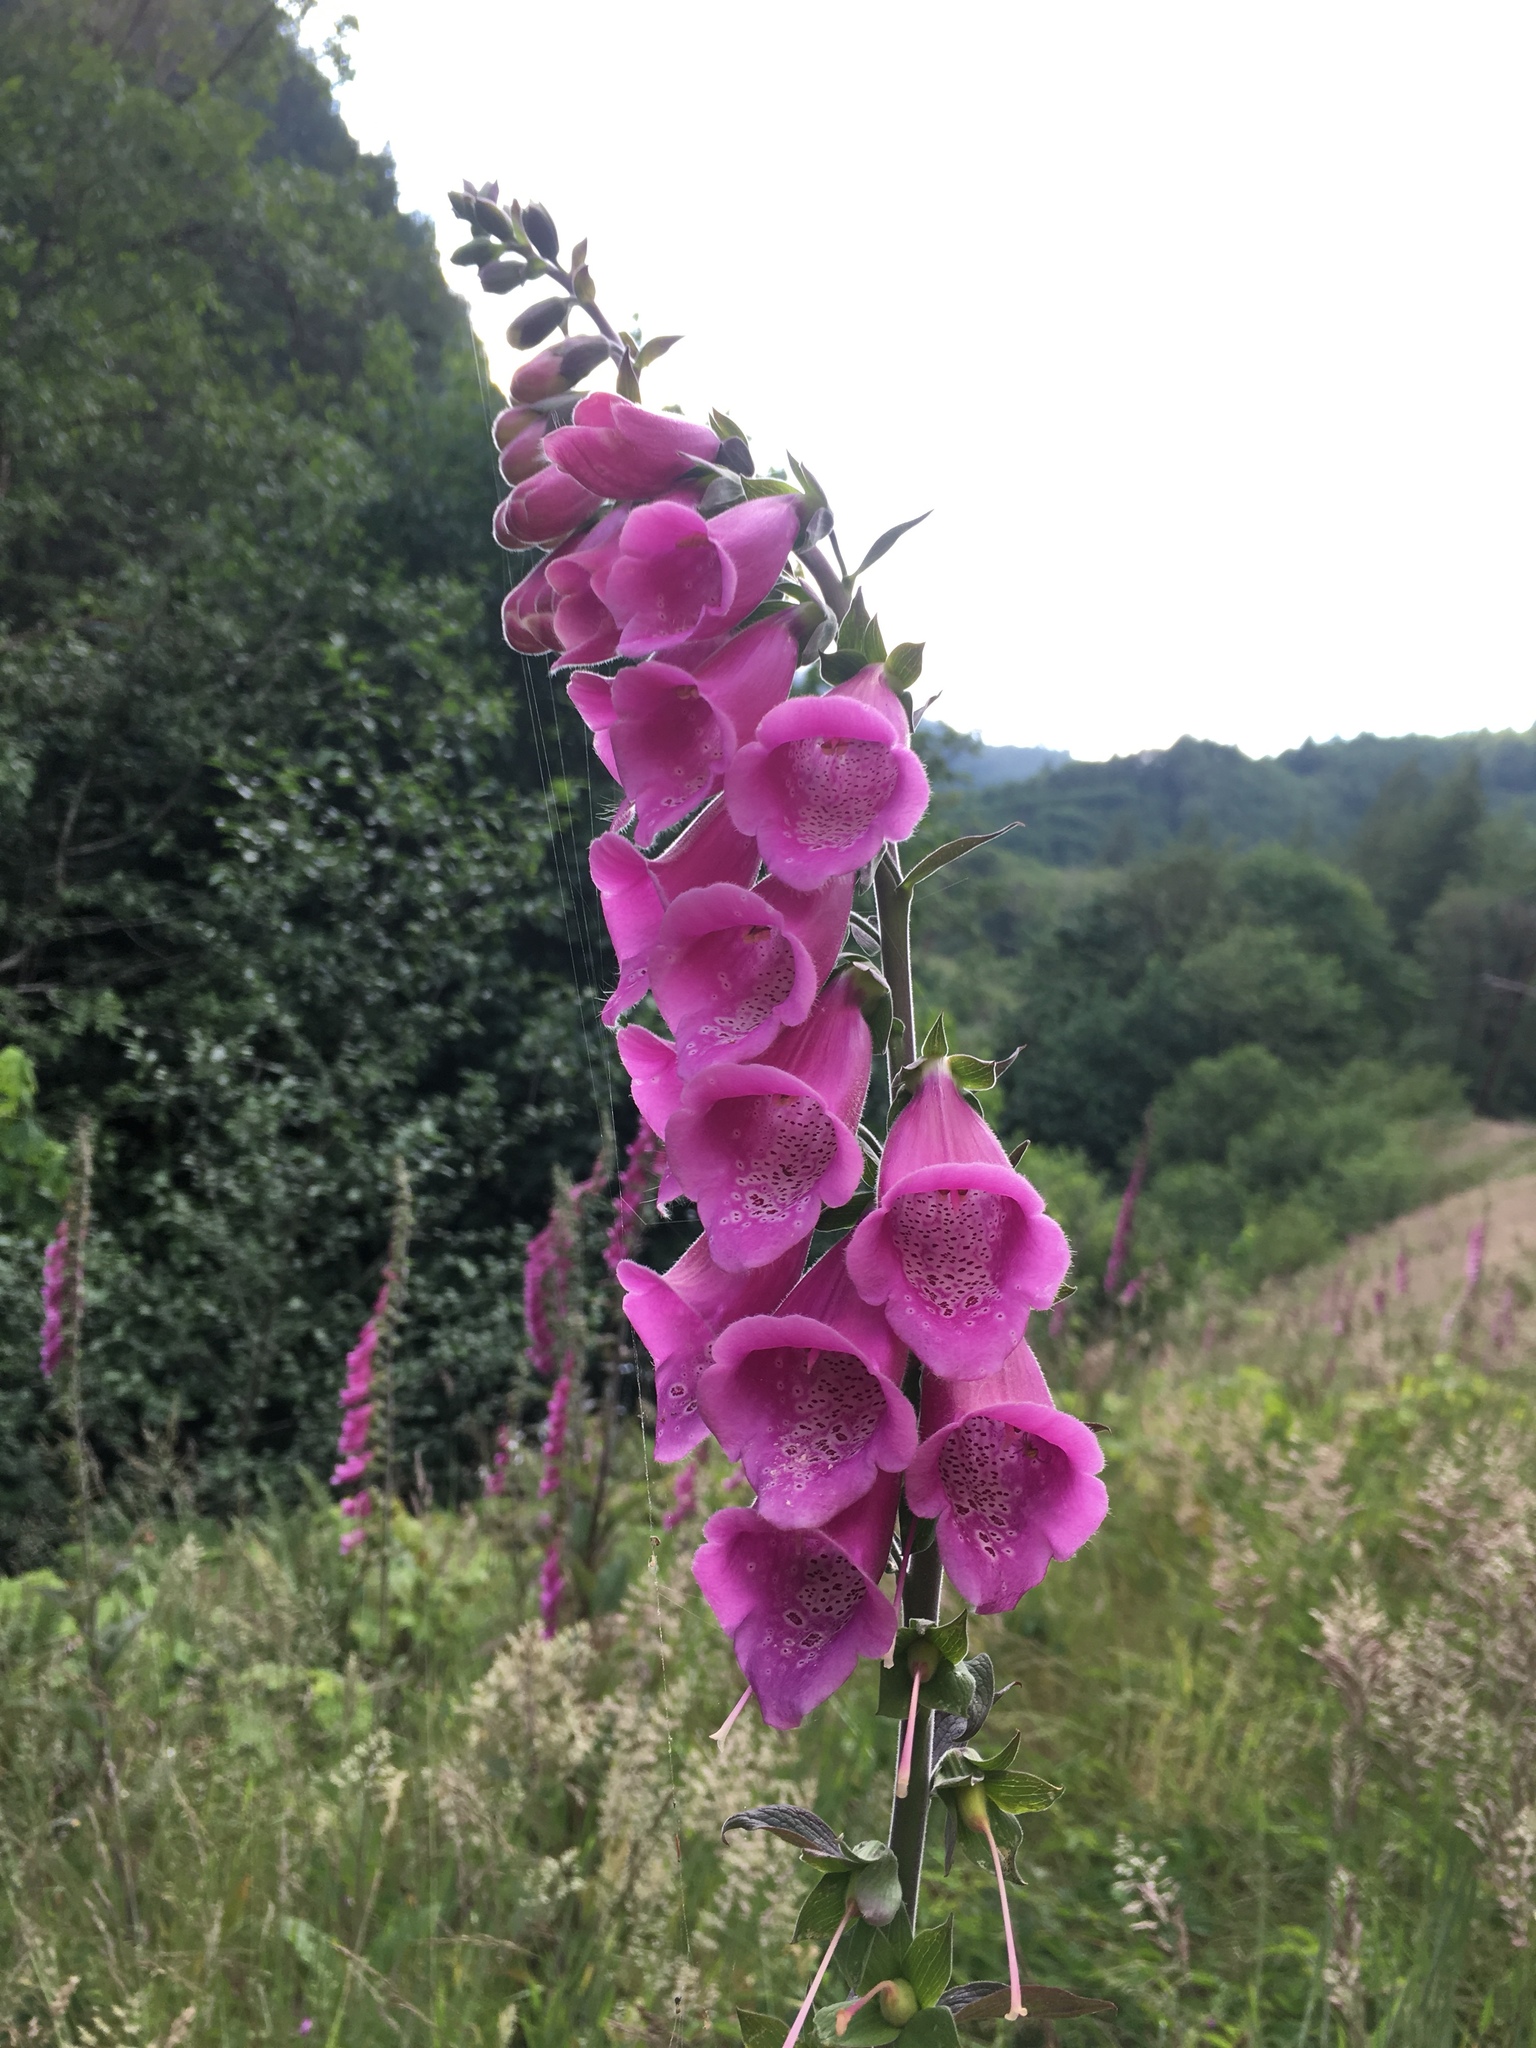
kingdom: Plantae
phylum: Tracheophyta
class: Magnoliopsida
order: Lamiales
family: Plantaginaceae
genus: Digitalis
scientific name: Digitalis purpurea
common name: Foxglove
